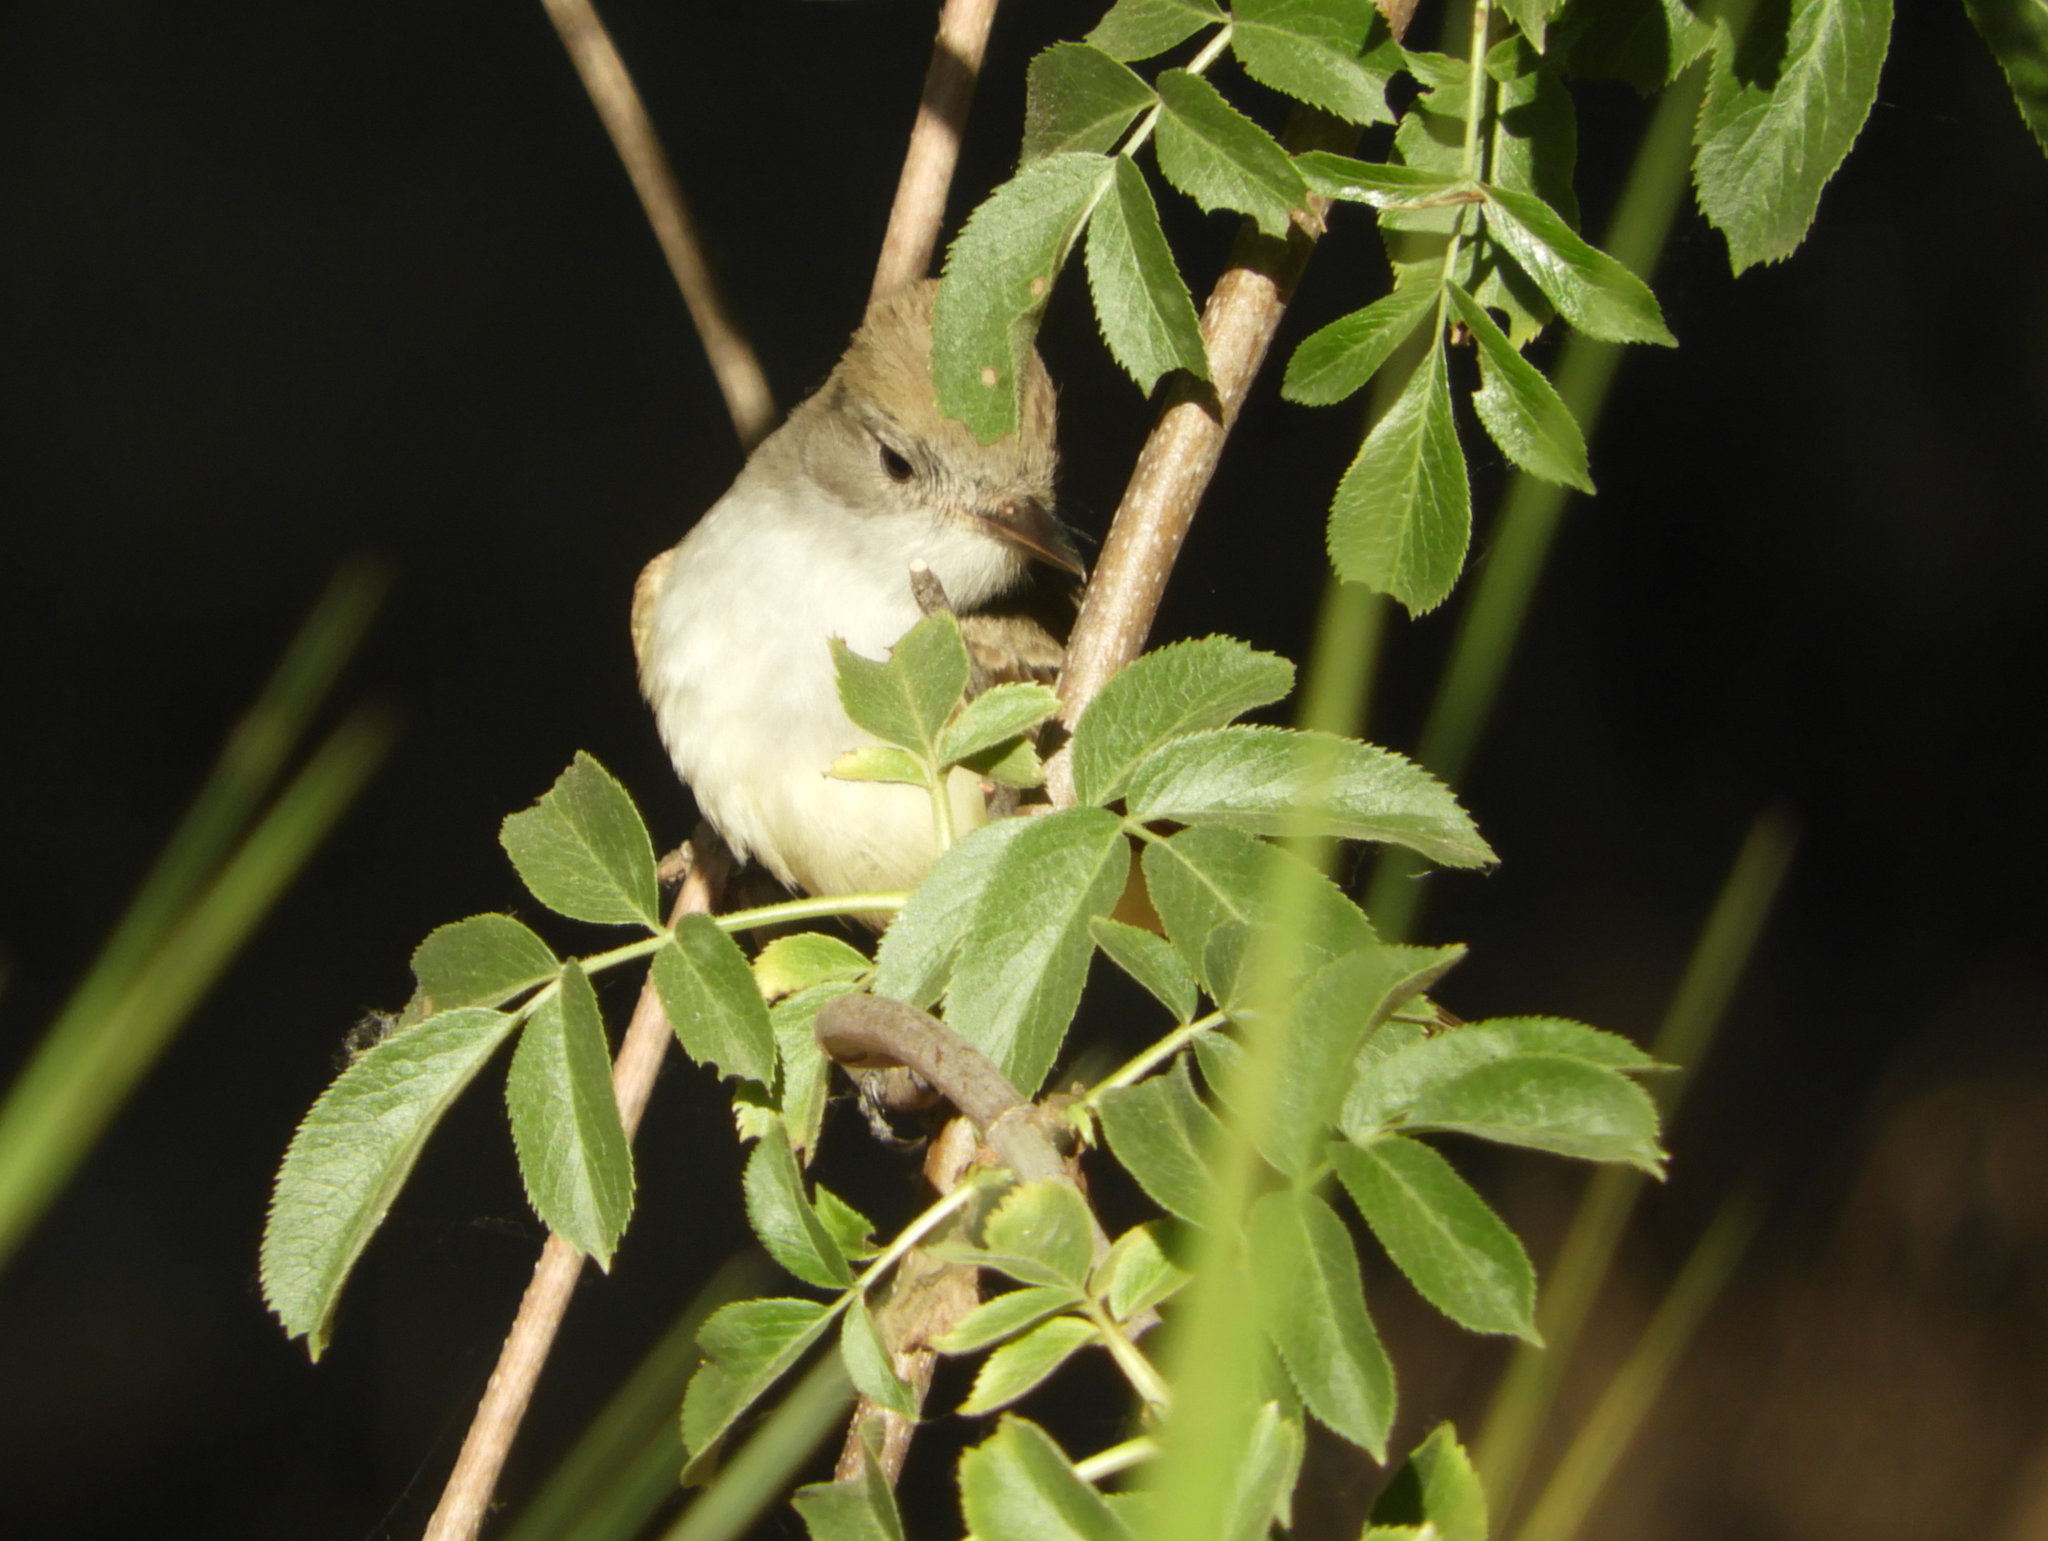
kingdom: Animalia
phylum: Chordata
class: Aves
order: Passeriformes
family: Tyrannidae
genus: Myiarchus
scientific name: Myiarchus cinerascens
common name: Ash-throated flycatcher
